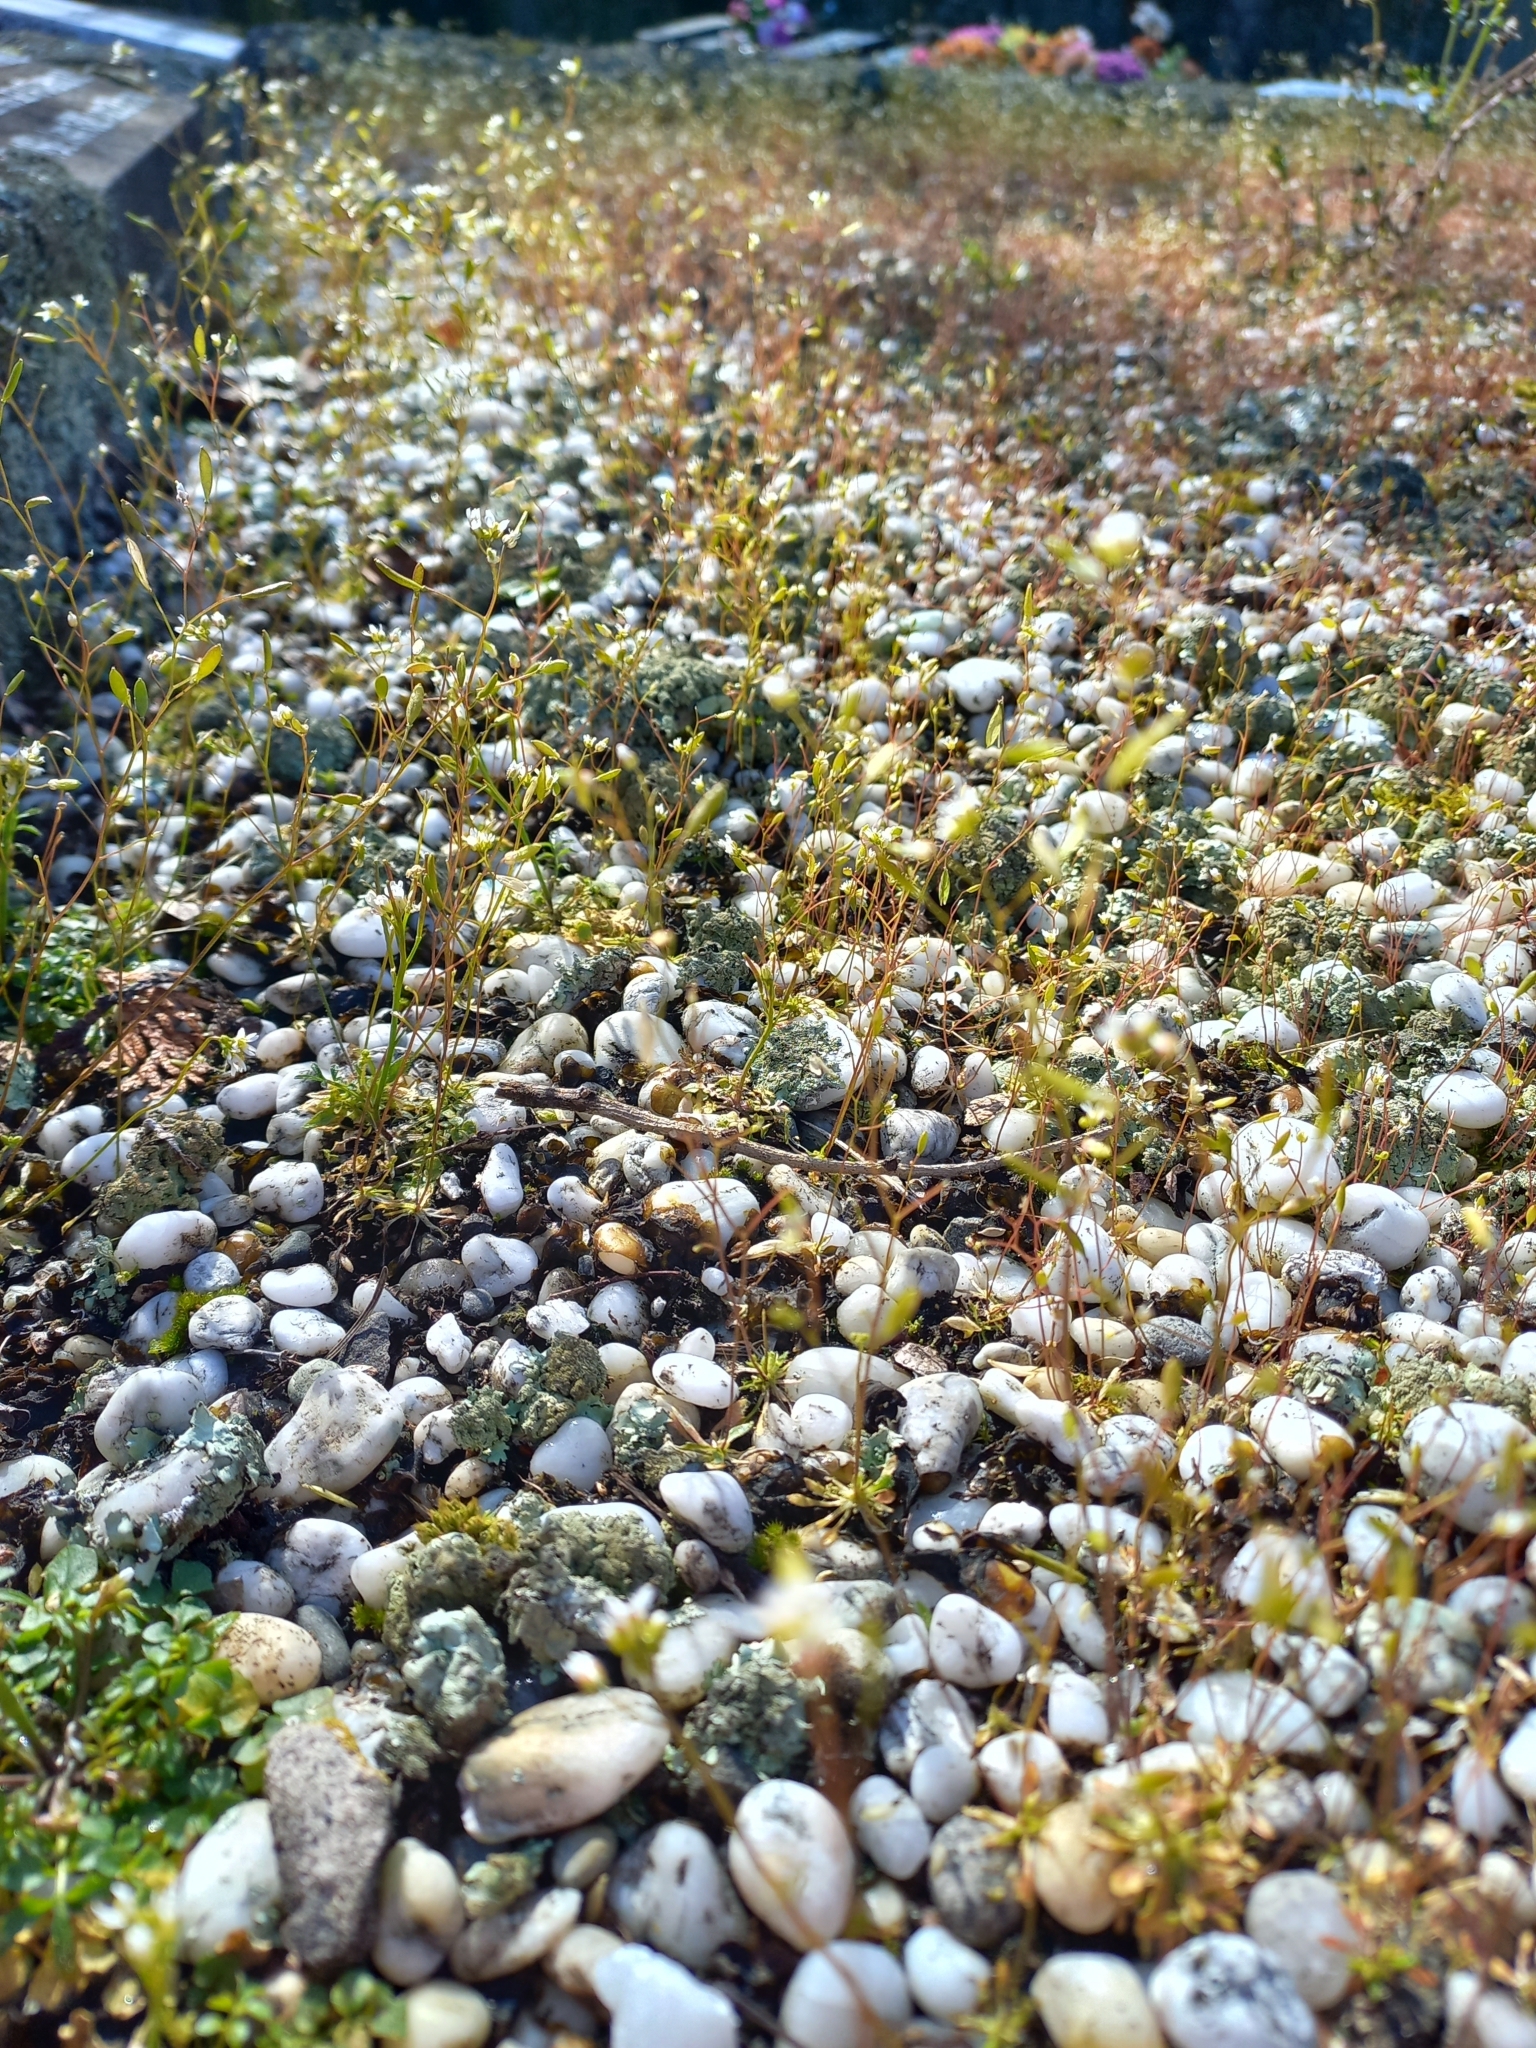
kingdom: Plantae
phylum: Tracheophyta
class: Magnoliopsida
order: Brassicales
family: Brassicaceae
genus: Draba
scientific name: Draba verna
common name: Spring draba
